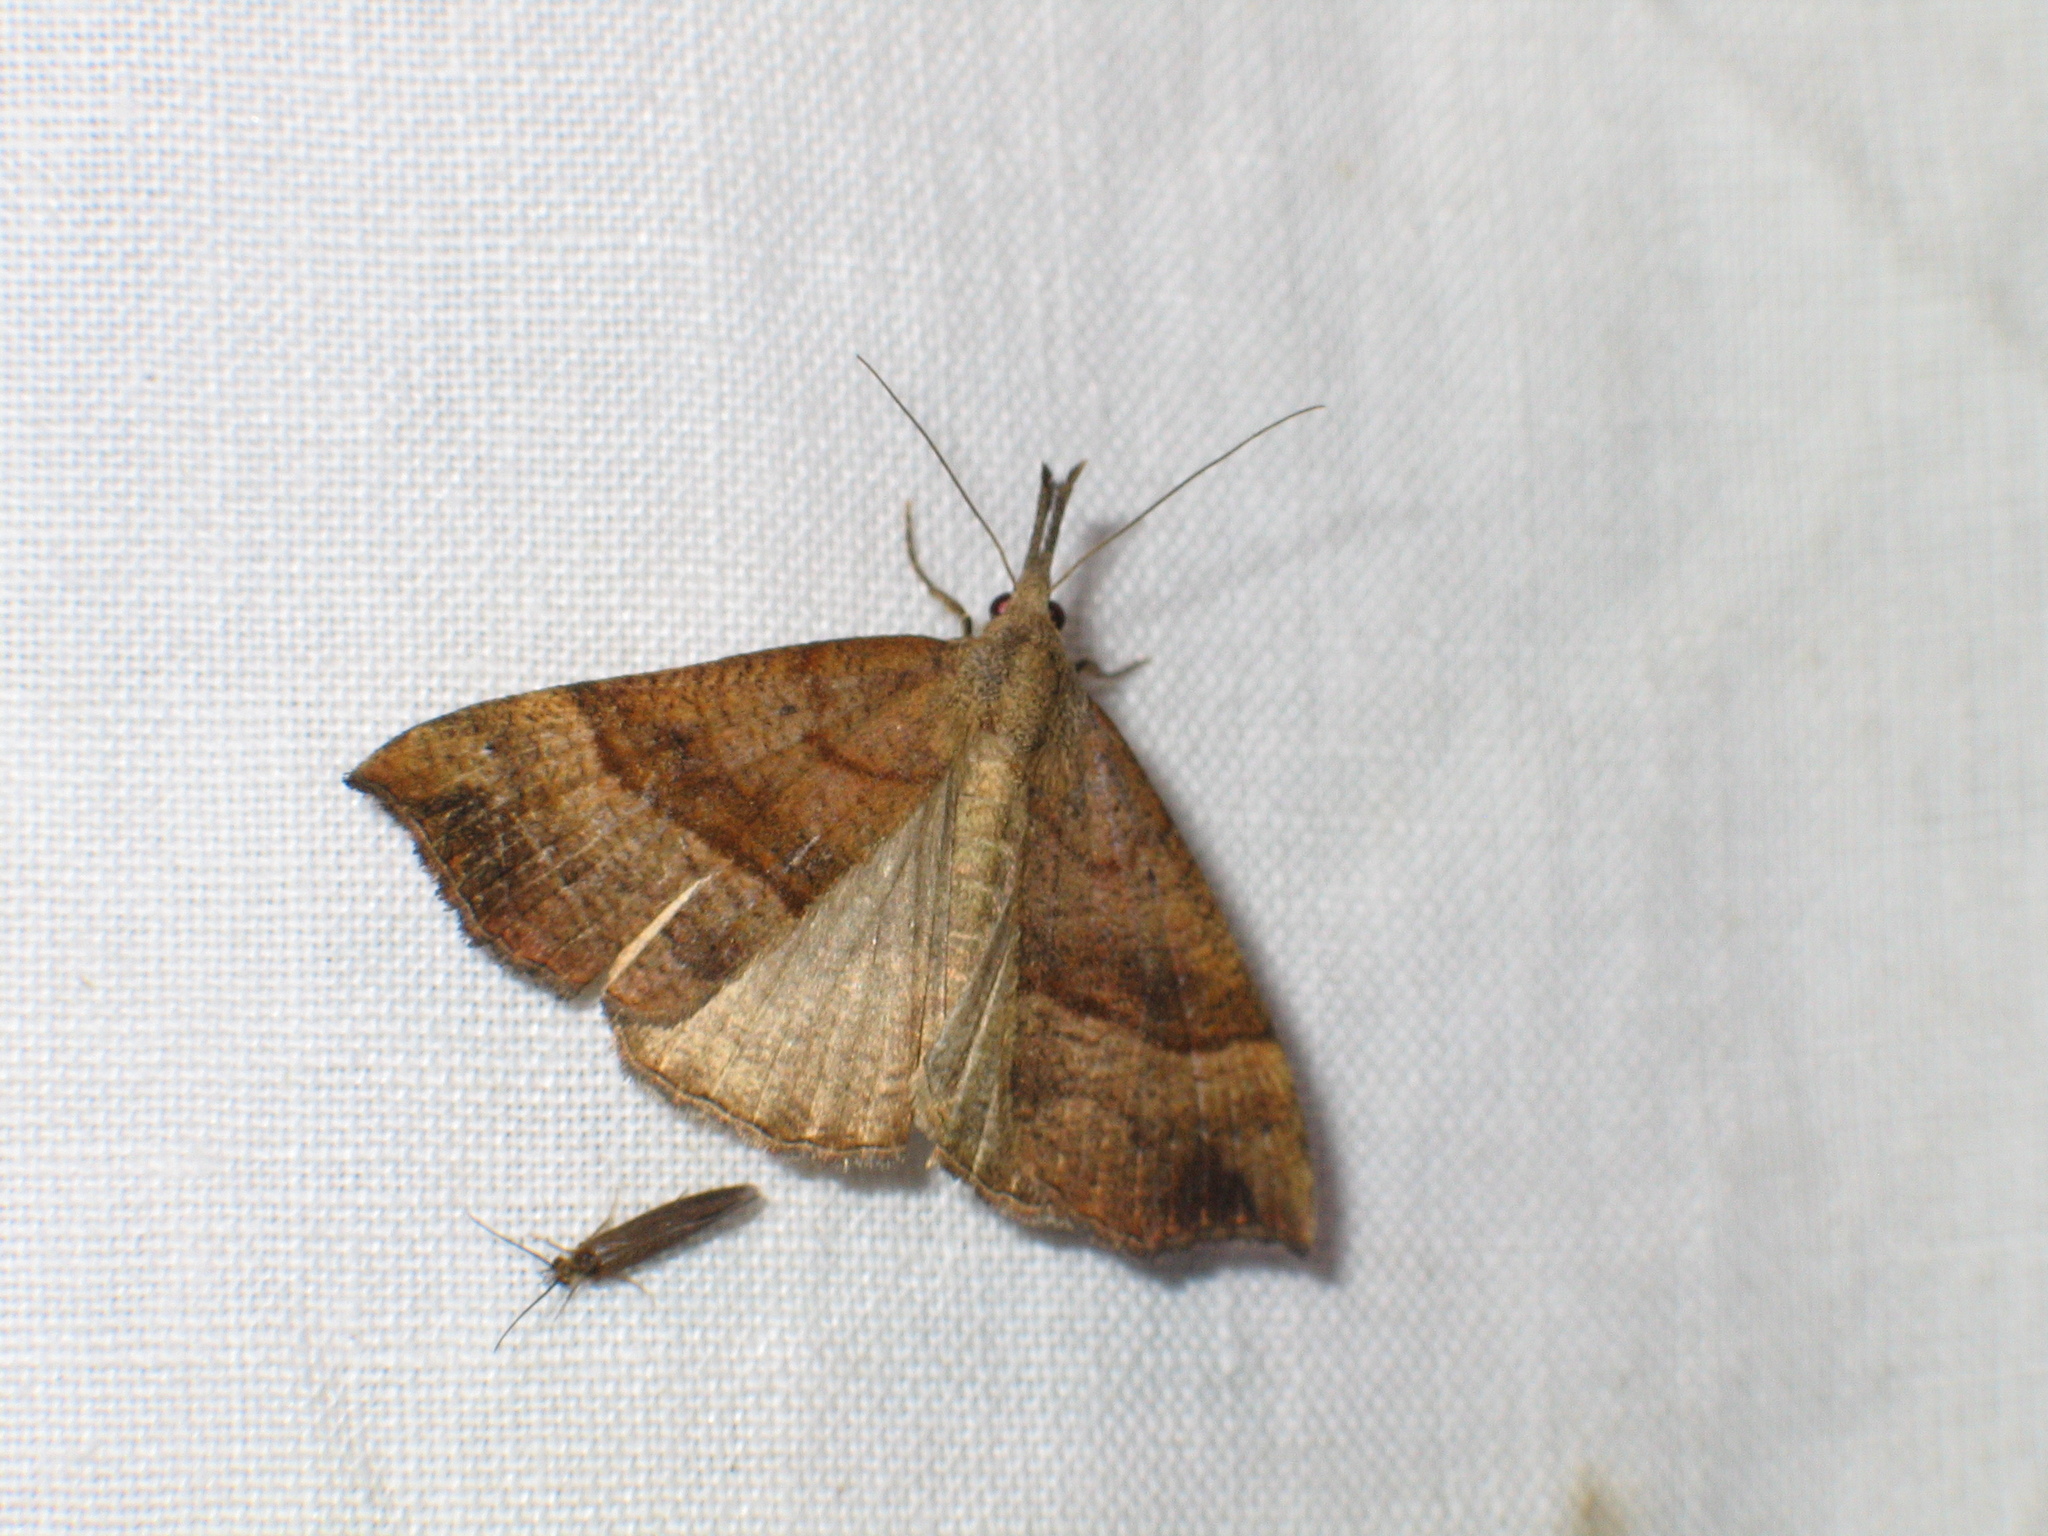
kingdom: Animalia
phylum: Arthropoda
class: Insecta
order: Lepidoptera
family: Erebidae
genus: Hypena
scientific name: Hypena proboscidalis
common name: Snout
